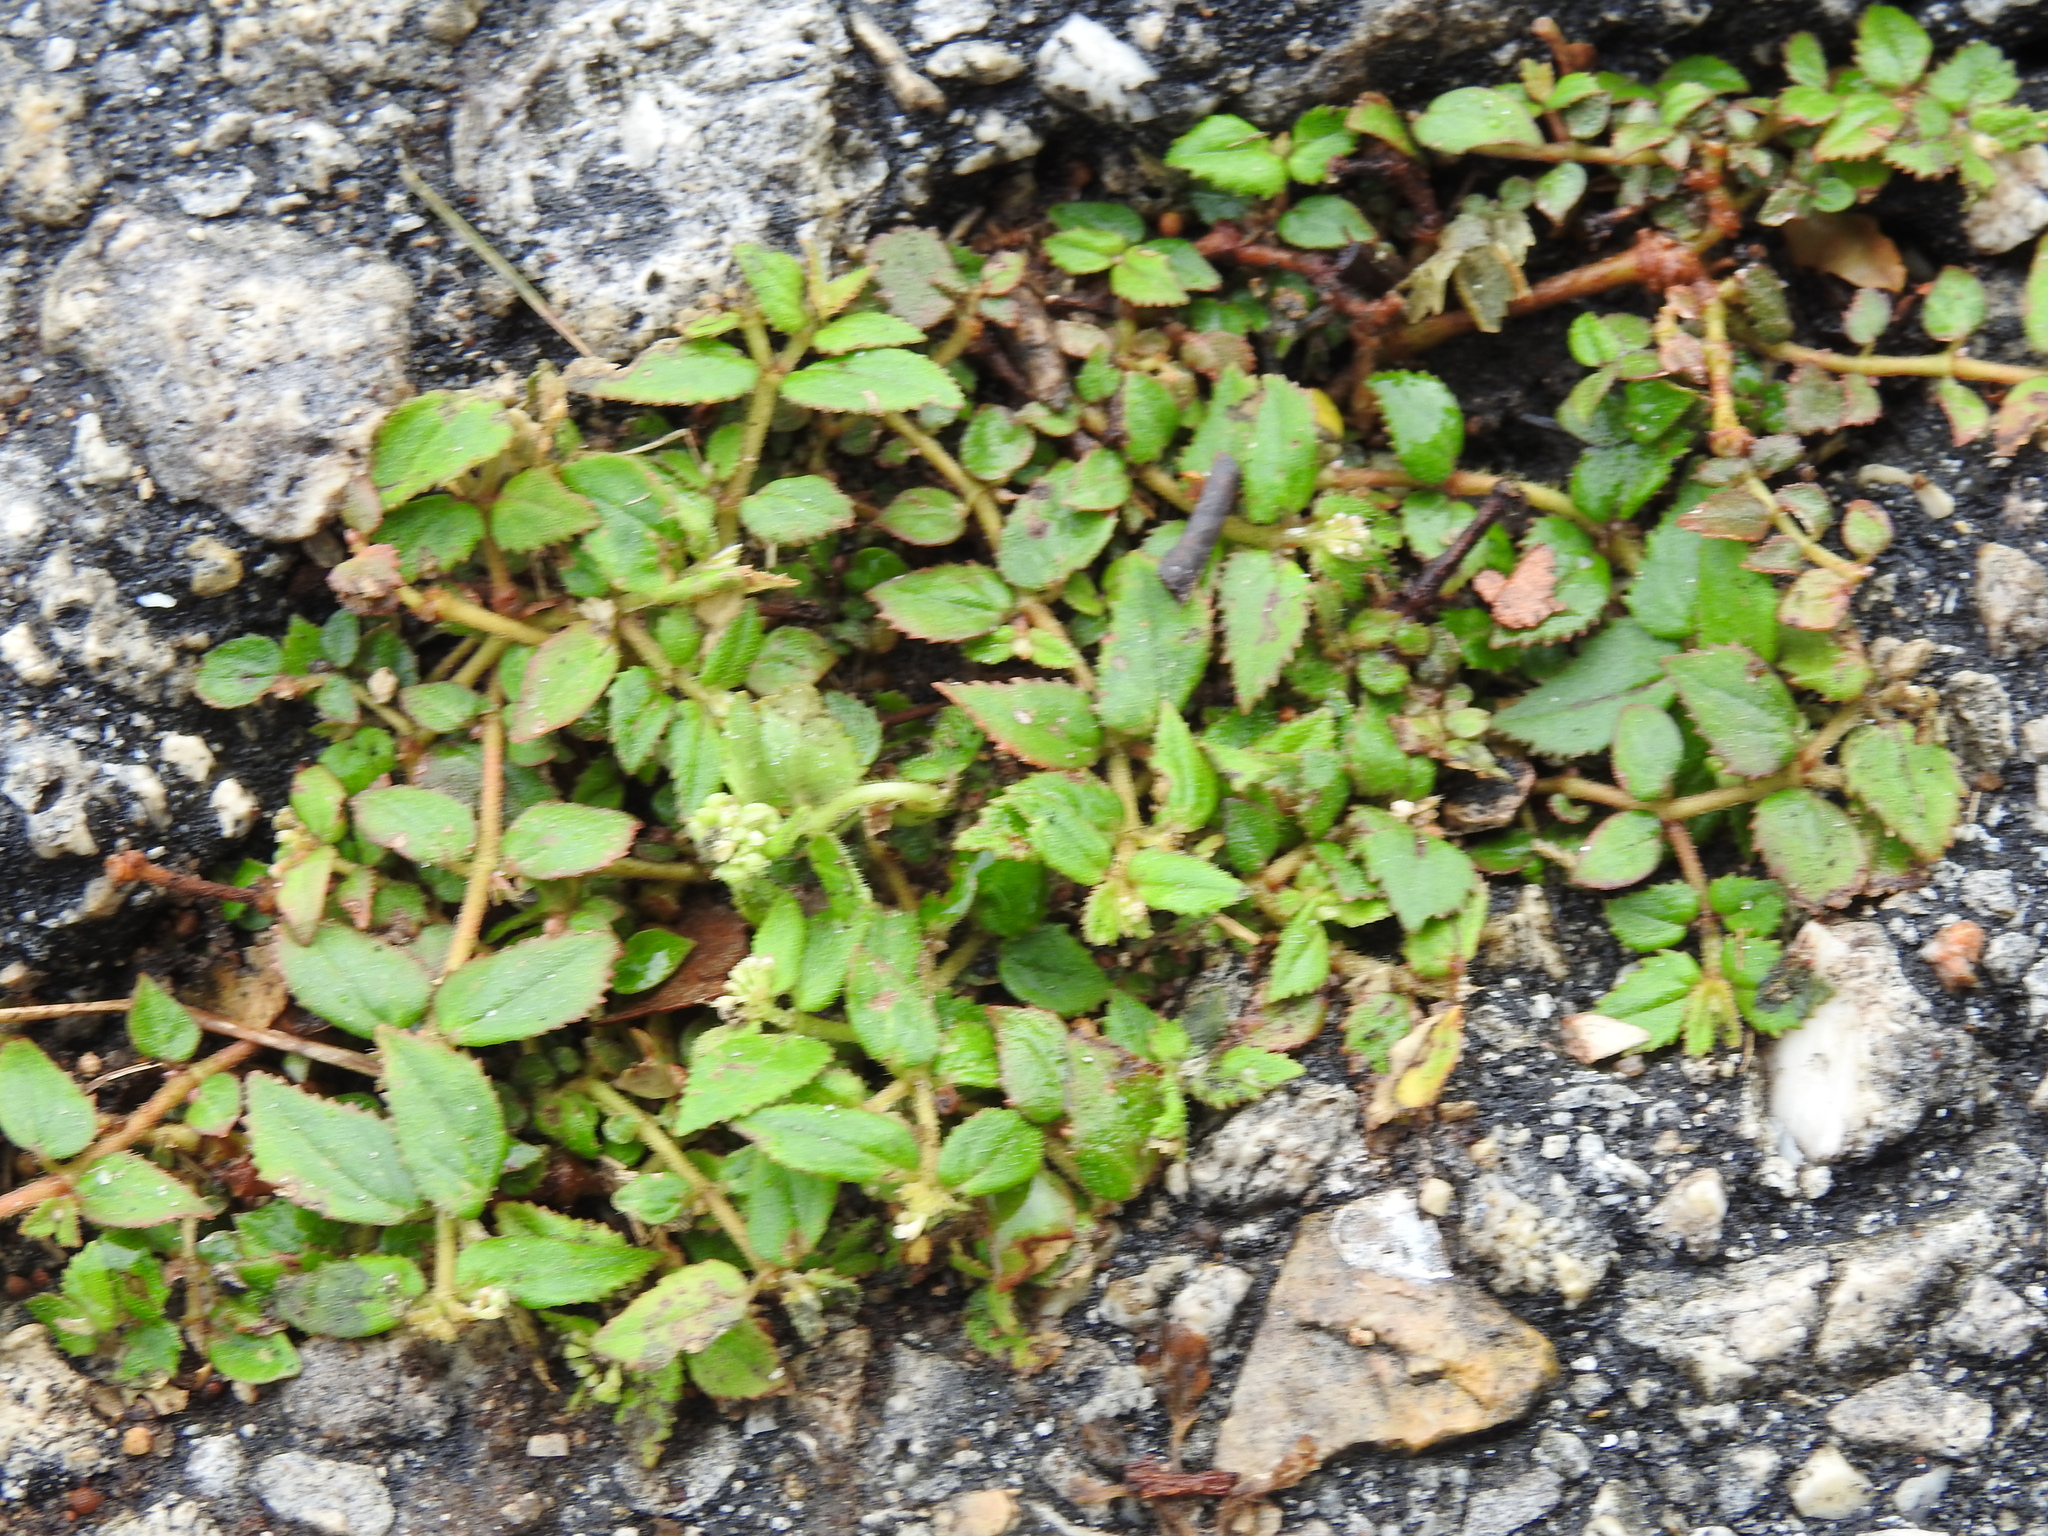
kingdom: Plantae
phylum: Tracheophyta
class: Magnoliopsida
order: Malpighiales
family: Euphorbiaceae
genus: Euphorbia
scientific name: Euphorbia ophthalmica
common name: Florida hammock sandmat
